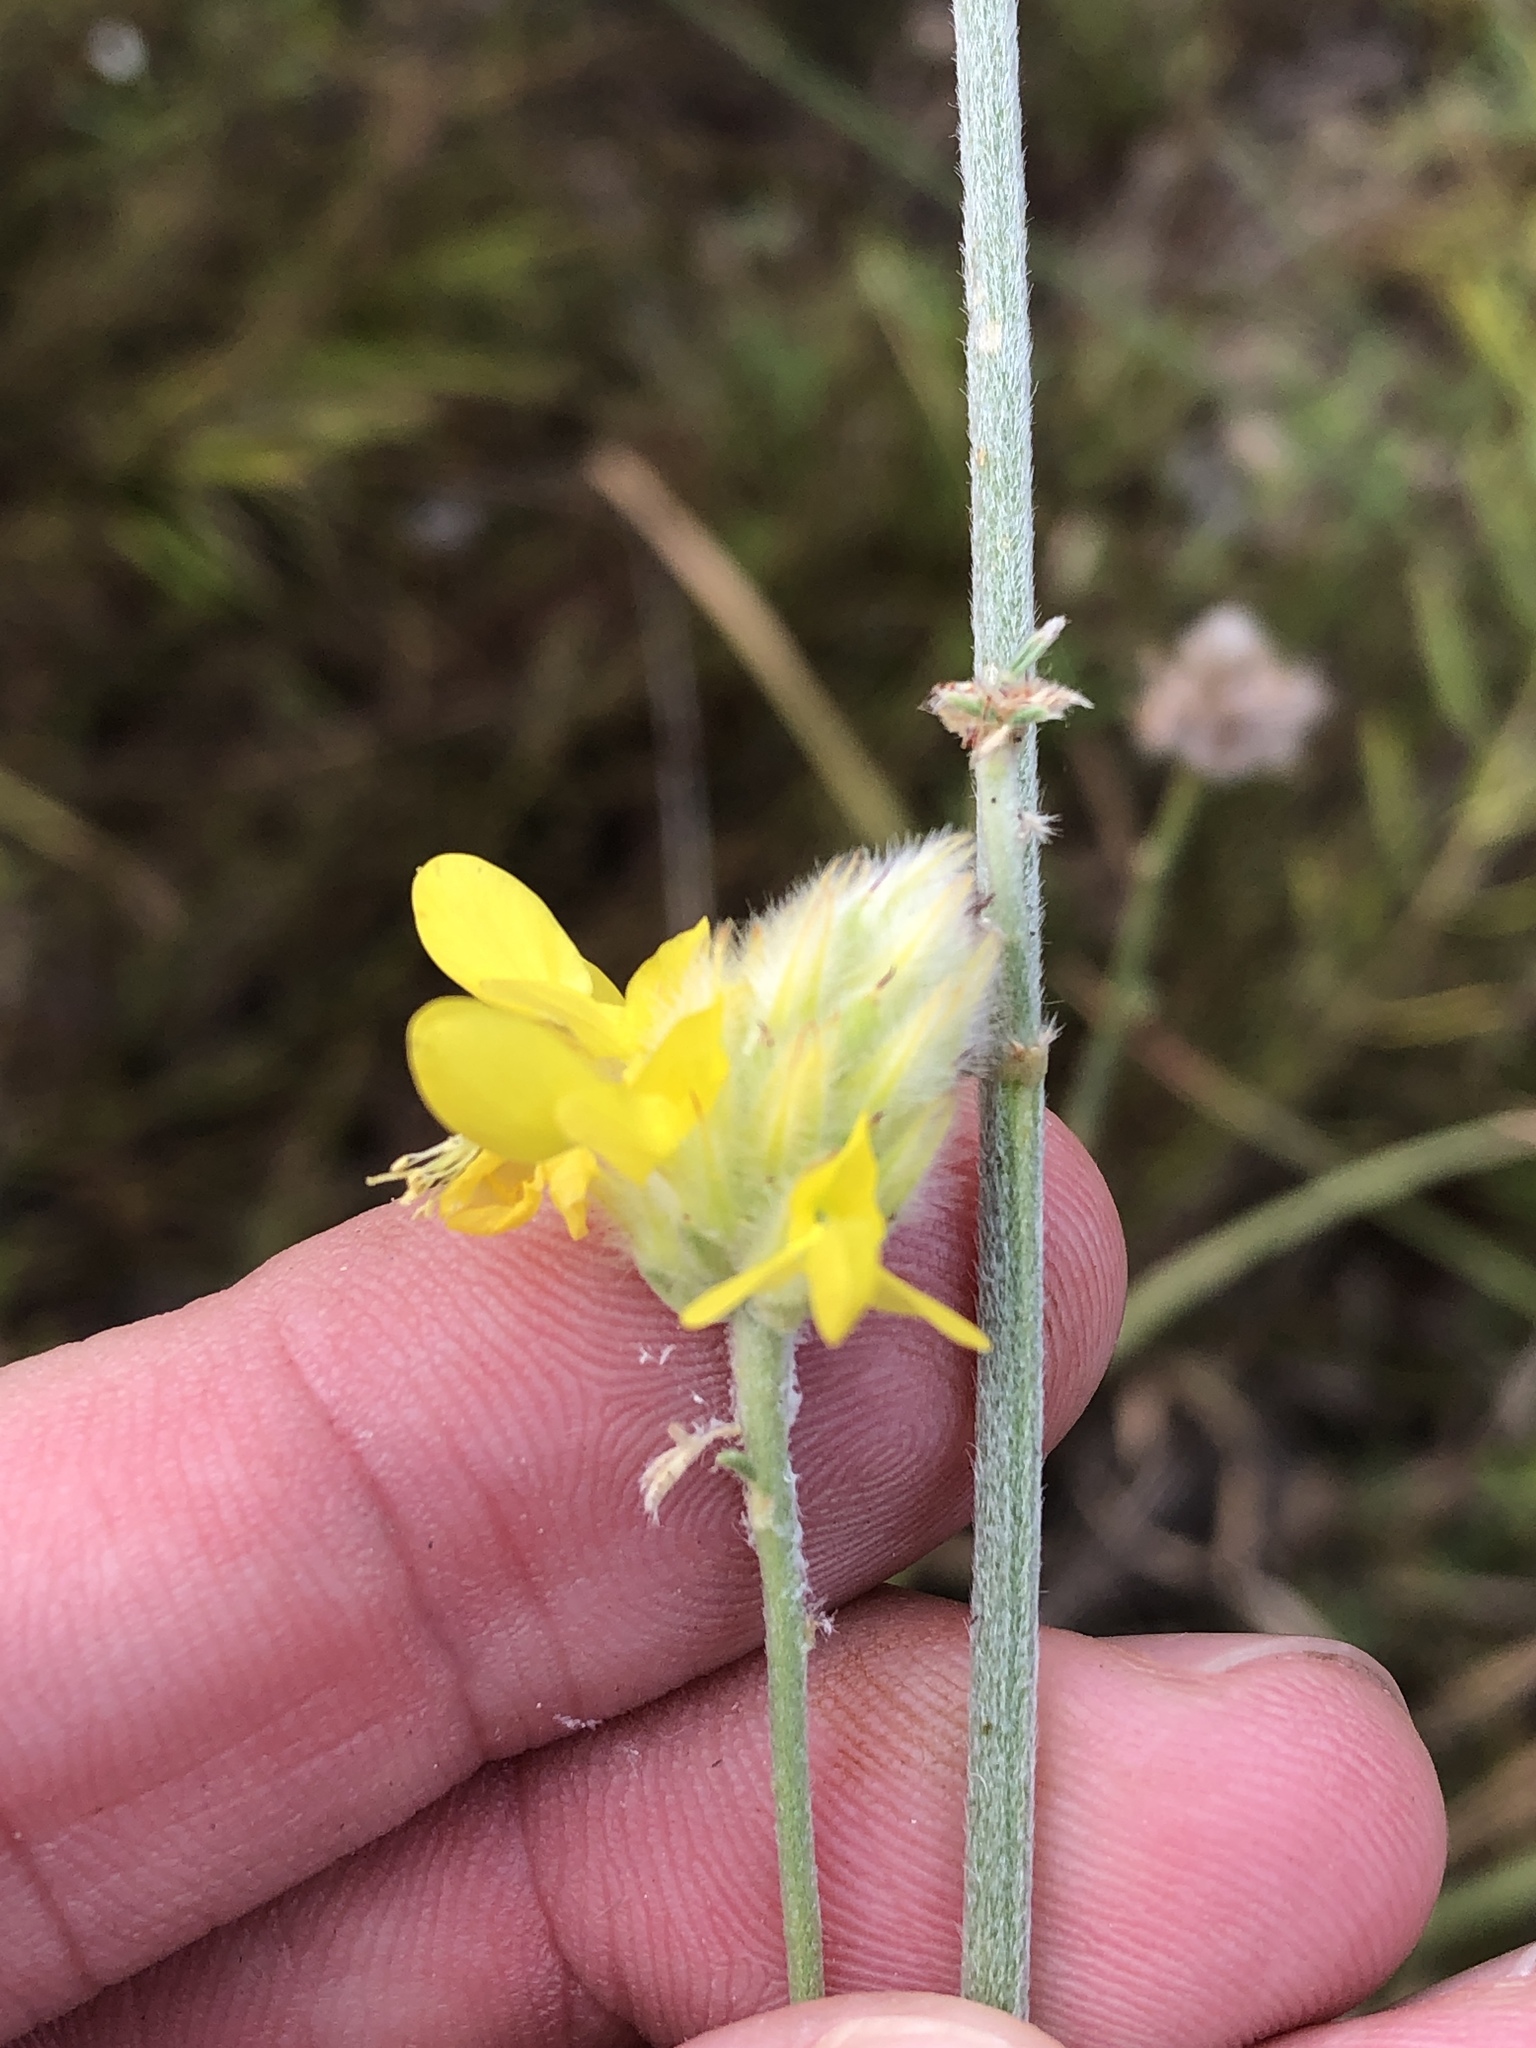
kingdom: Plantae
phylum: Tracheophyta
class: Magnoliopsida
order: Fabales
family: Fabaceae
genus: Dalea
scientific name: Dalea aurea
